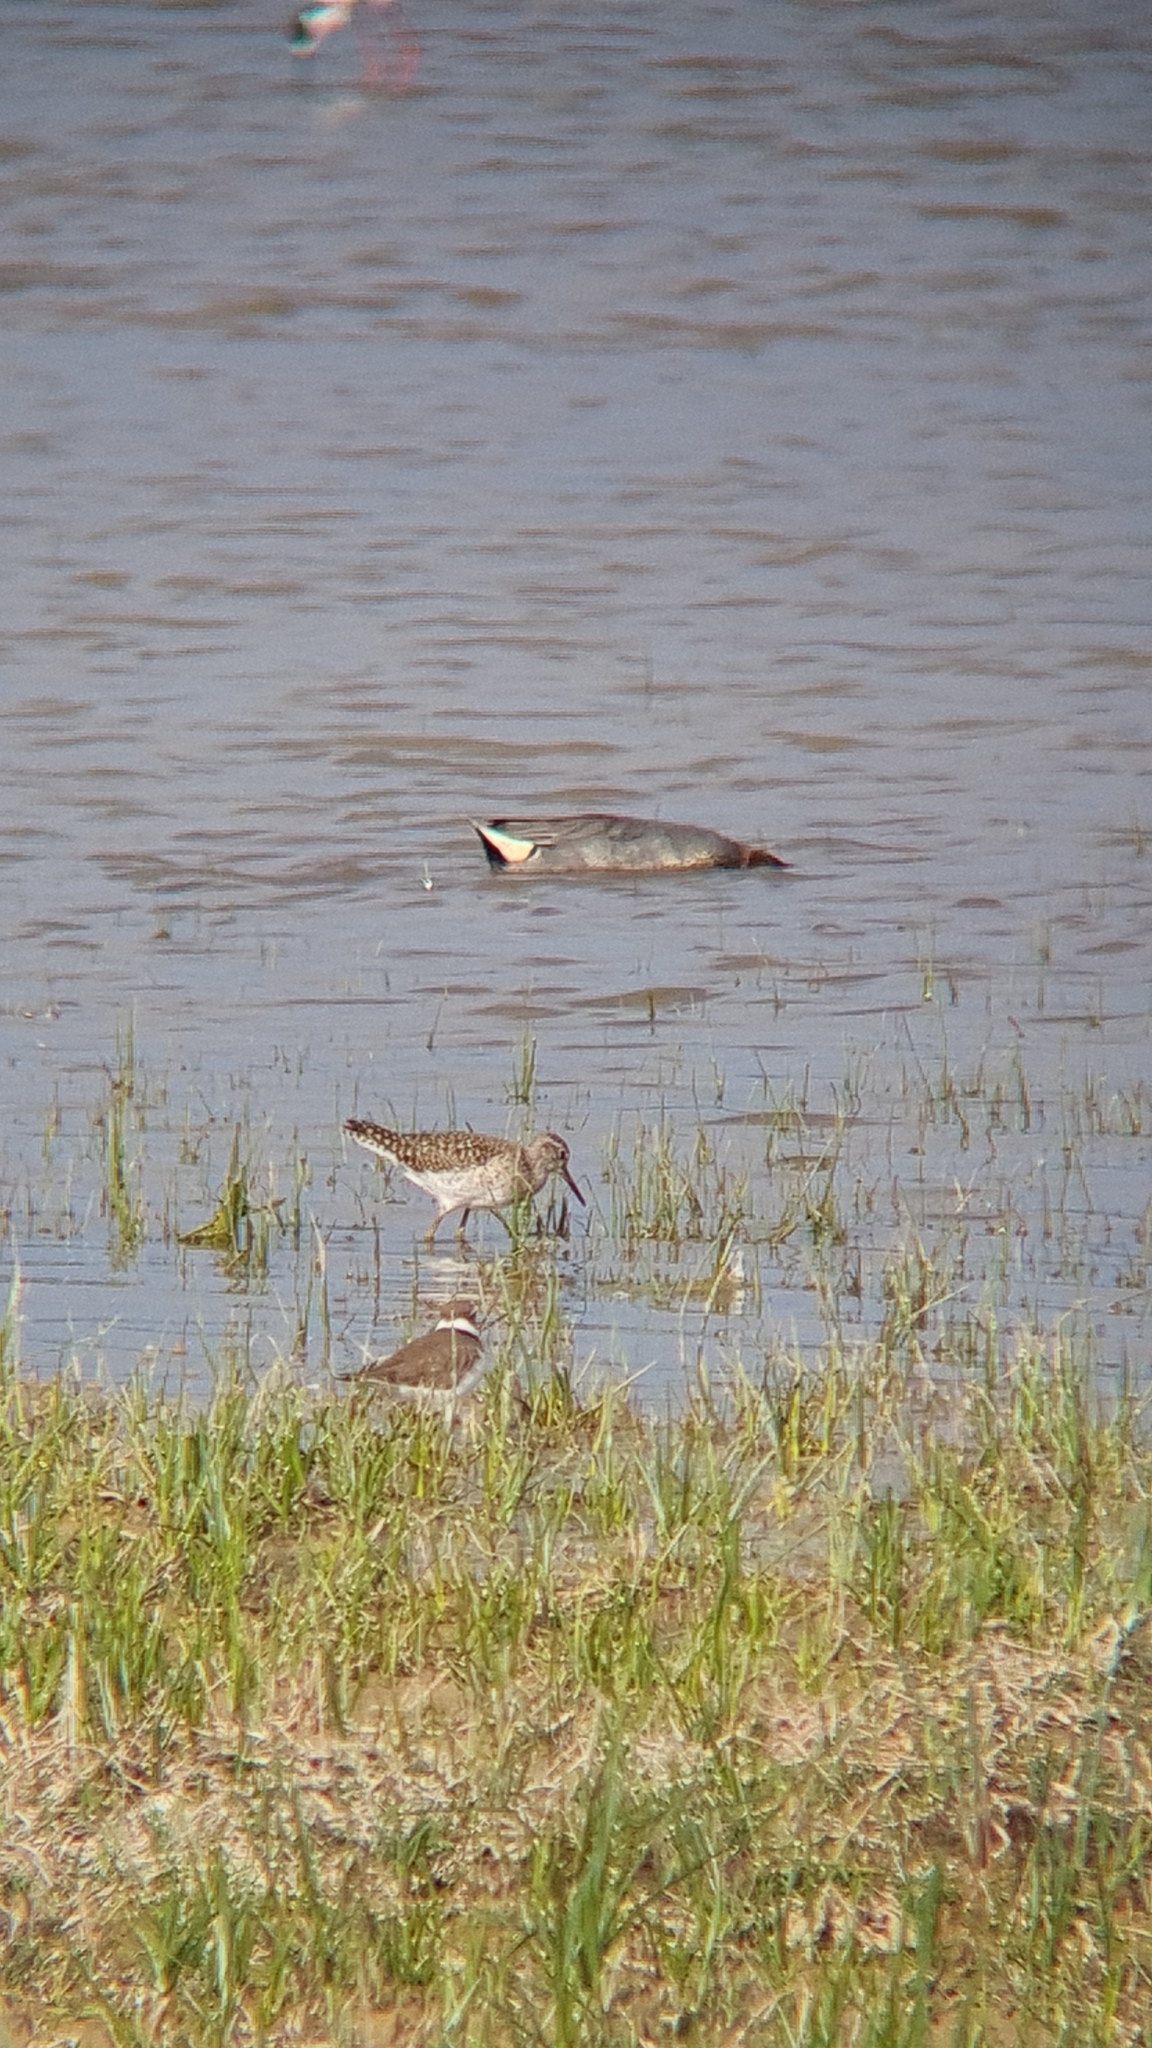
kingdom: Animalia
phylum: Chordata
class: Aves
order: Charadriiformes
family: Scolopacidae
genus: Tringa
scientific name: Tringa glareola
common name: Wood sandpiper
